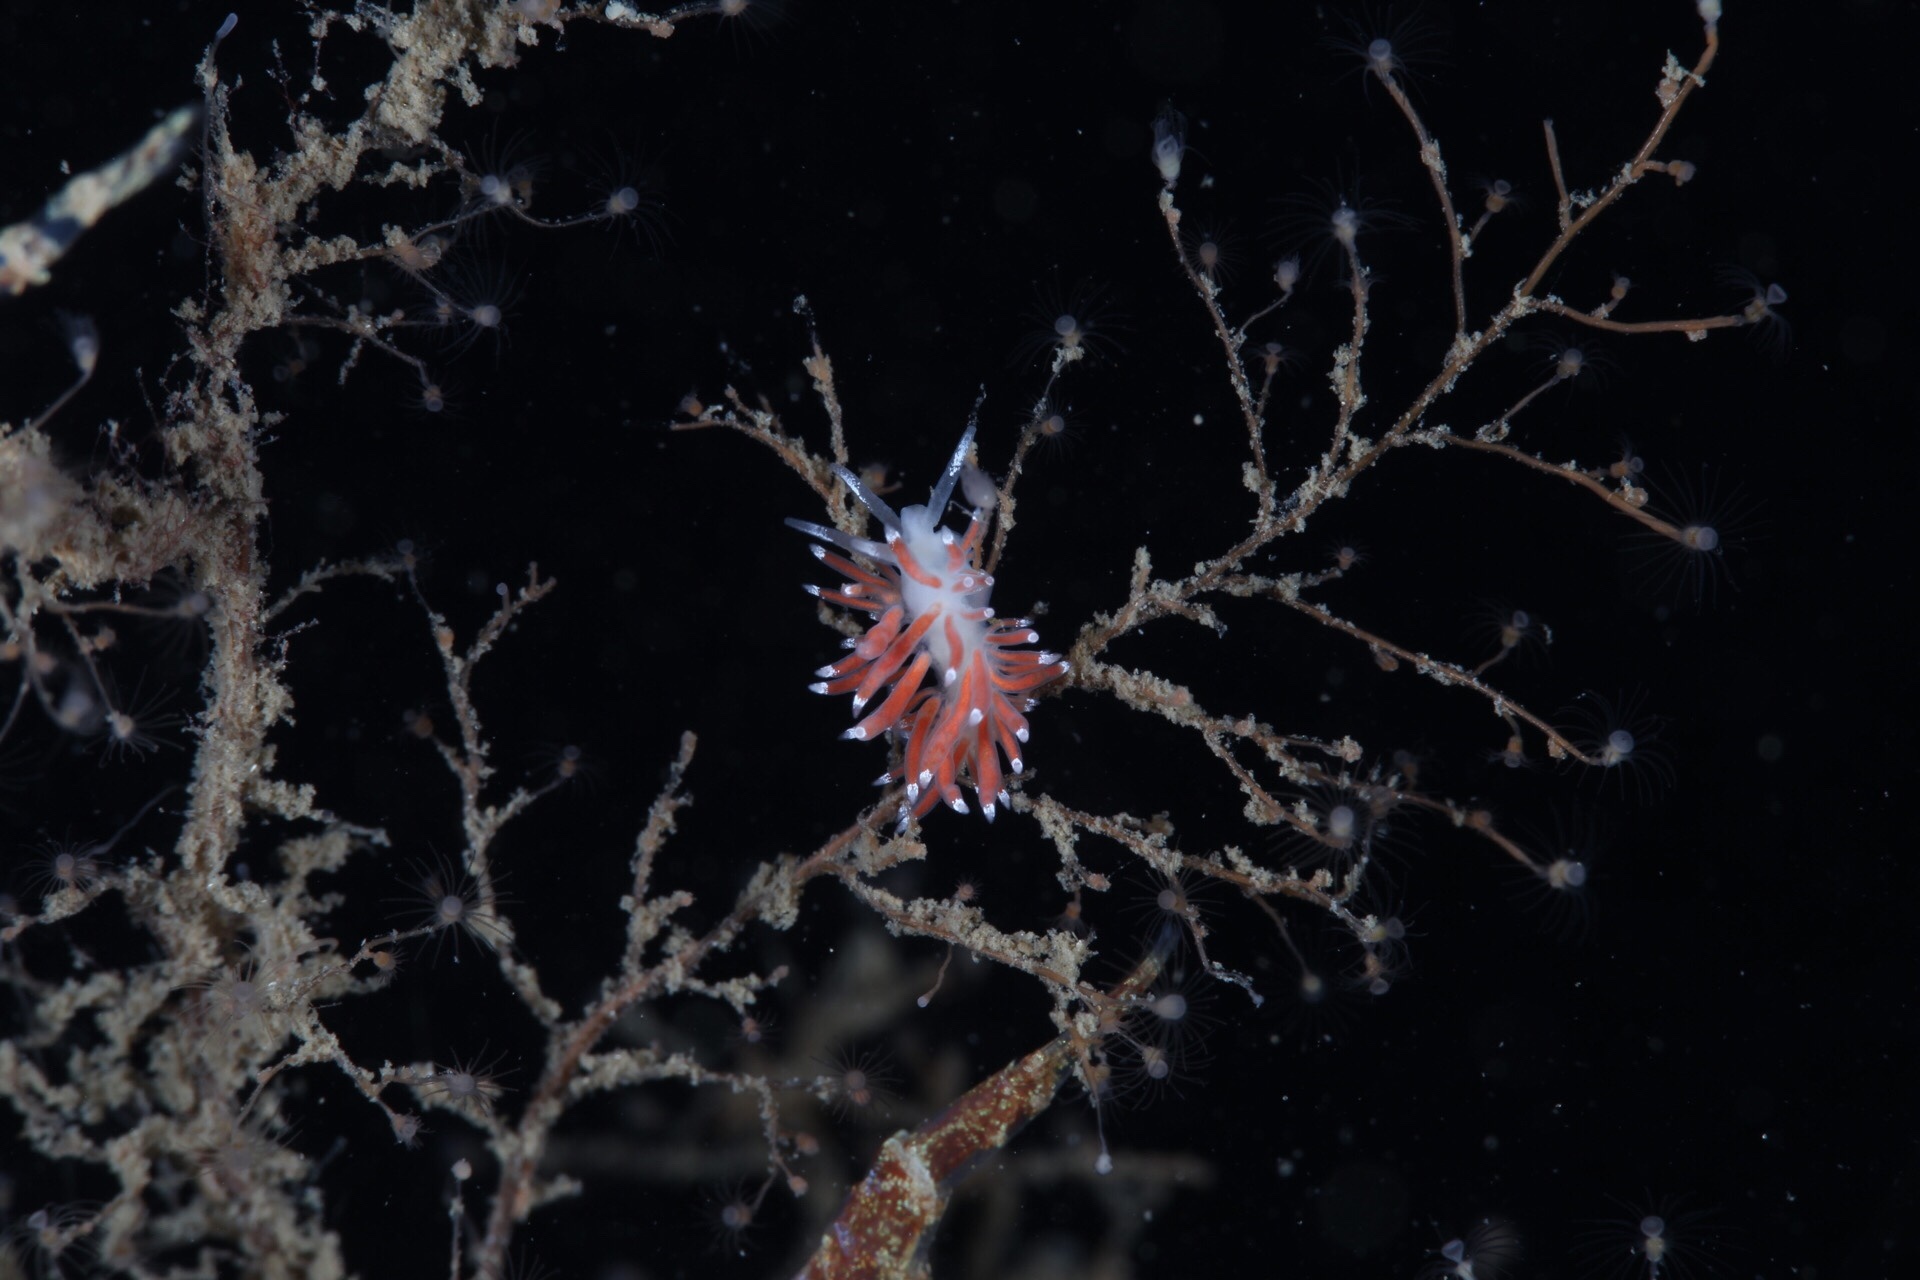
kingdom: Animalia
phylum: Mollusca
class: Gastropoda
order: Nudibranchia
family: Coryphellidae
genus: Coryphella
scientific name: Coryphella gracilis
